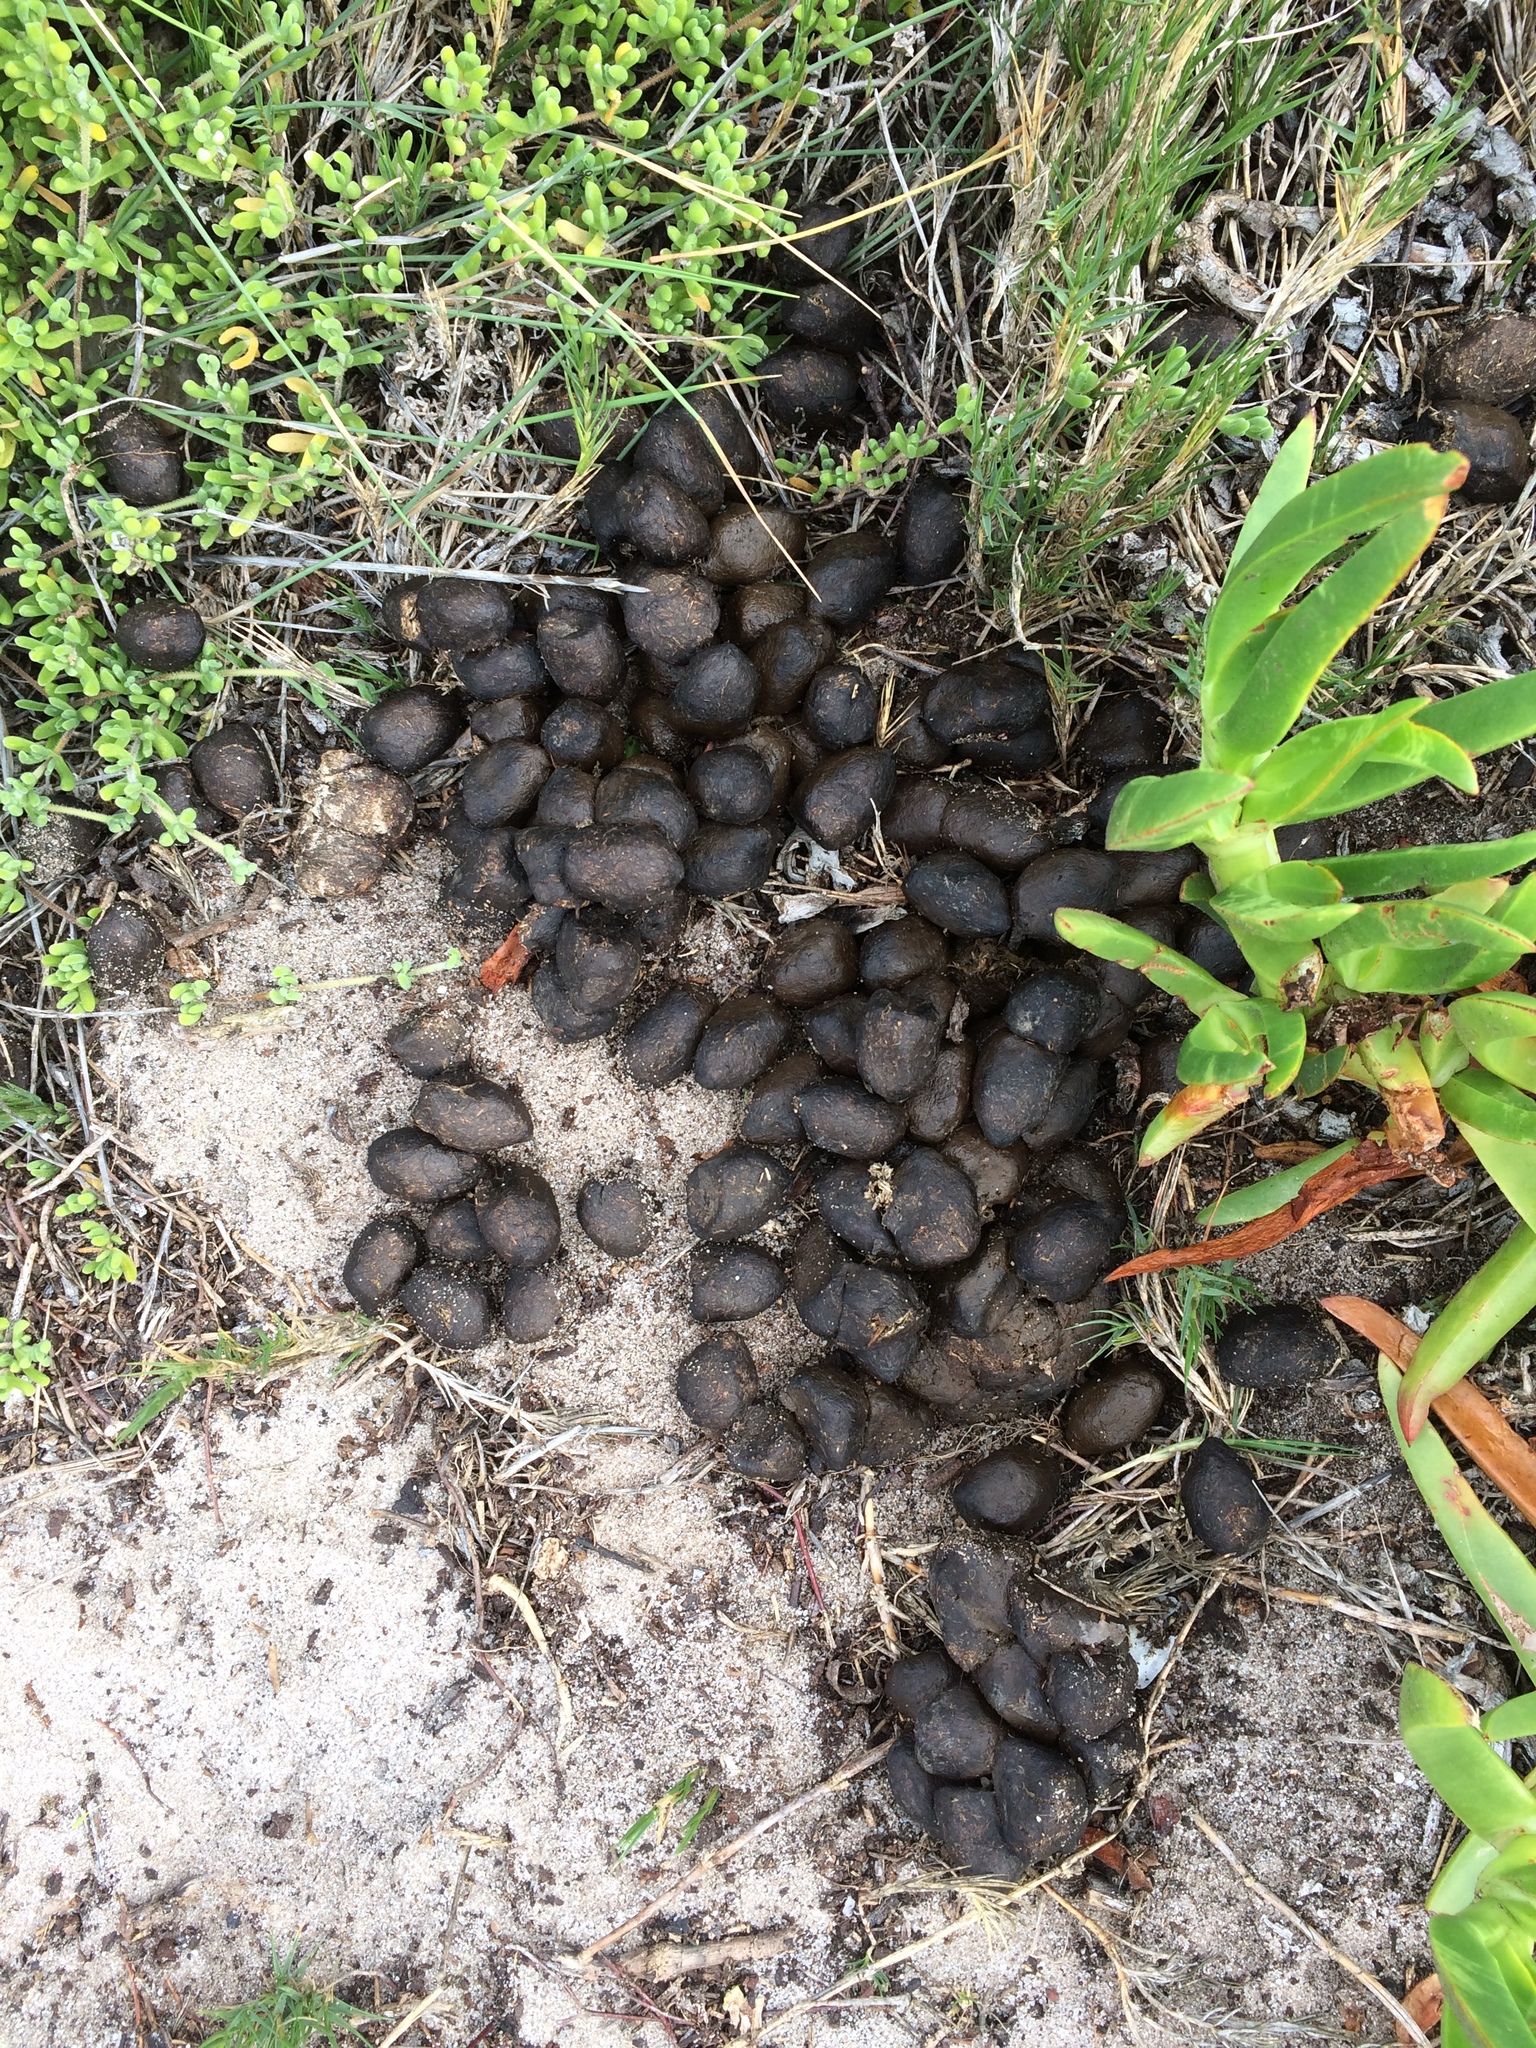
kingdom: Animalia
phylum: Chordata
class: Mammalia
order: Artiodactyla
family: Bovidae
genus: Taurotragus
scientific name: Taurotragus oryx
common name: Common eland
